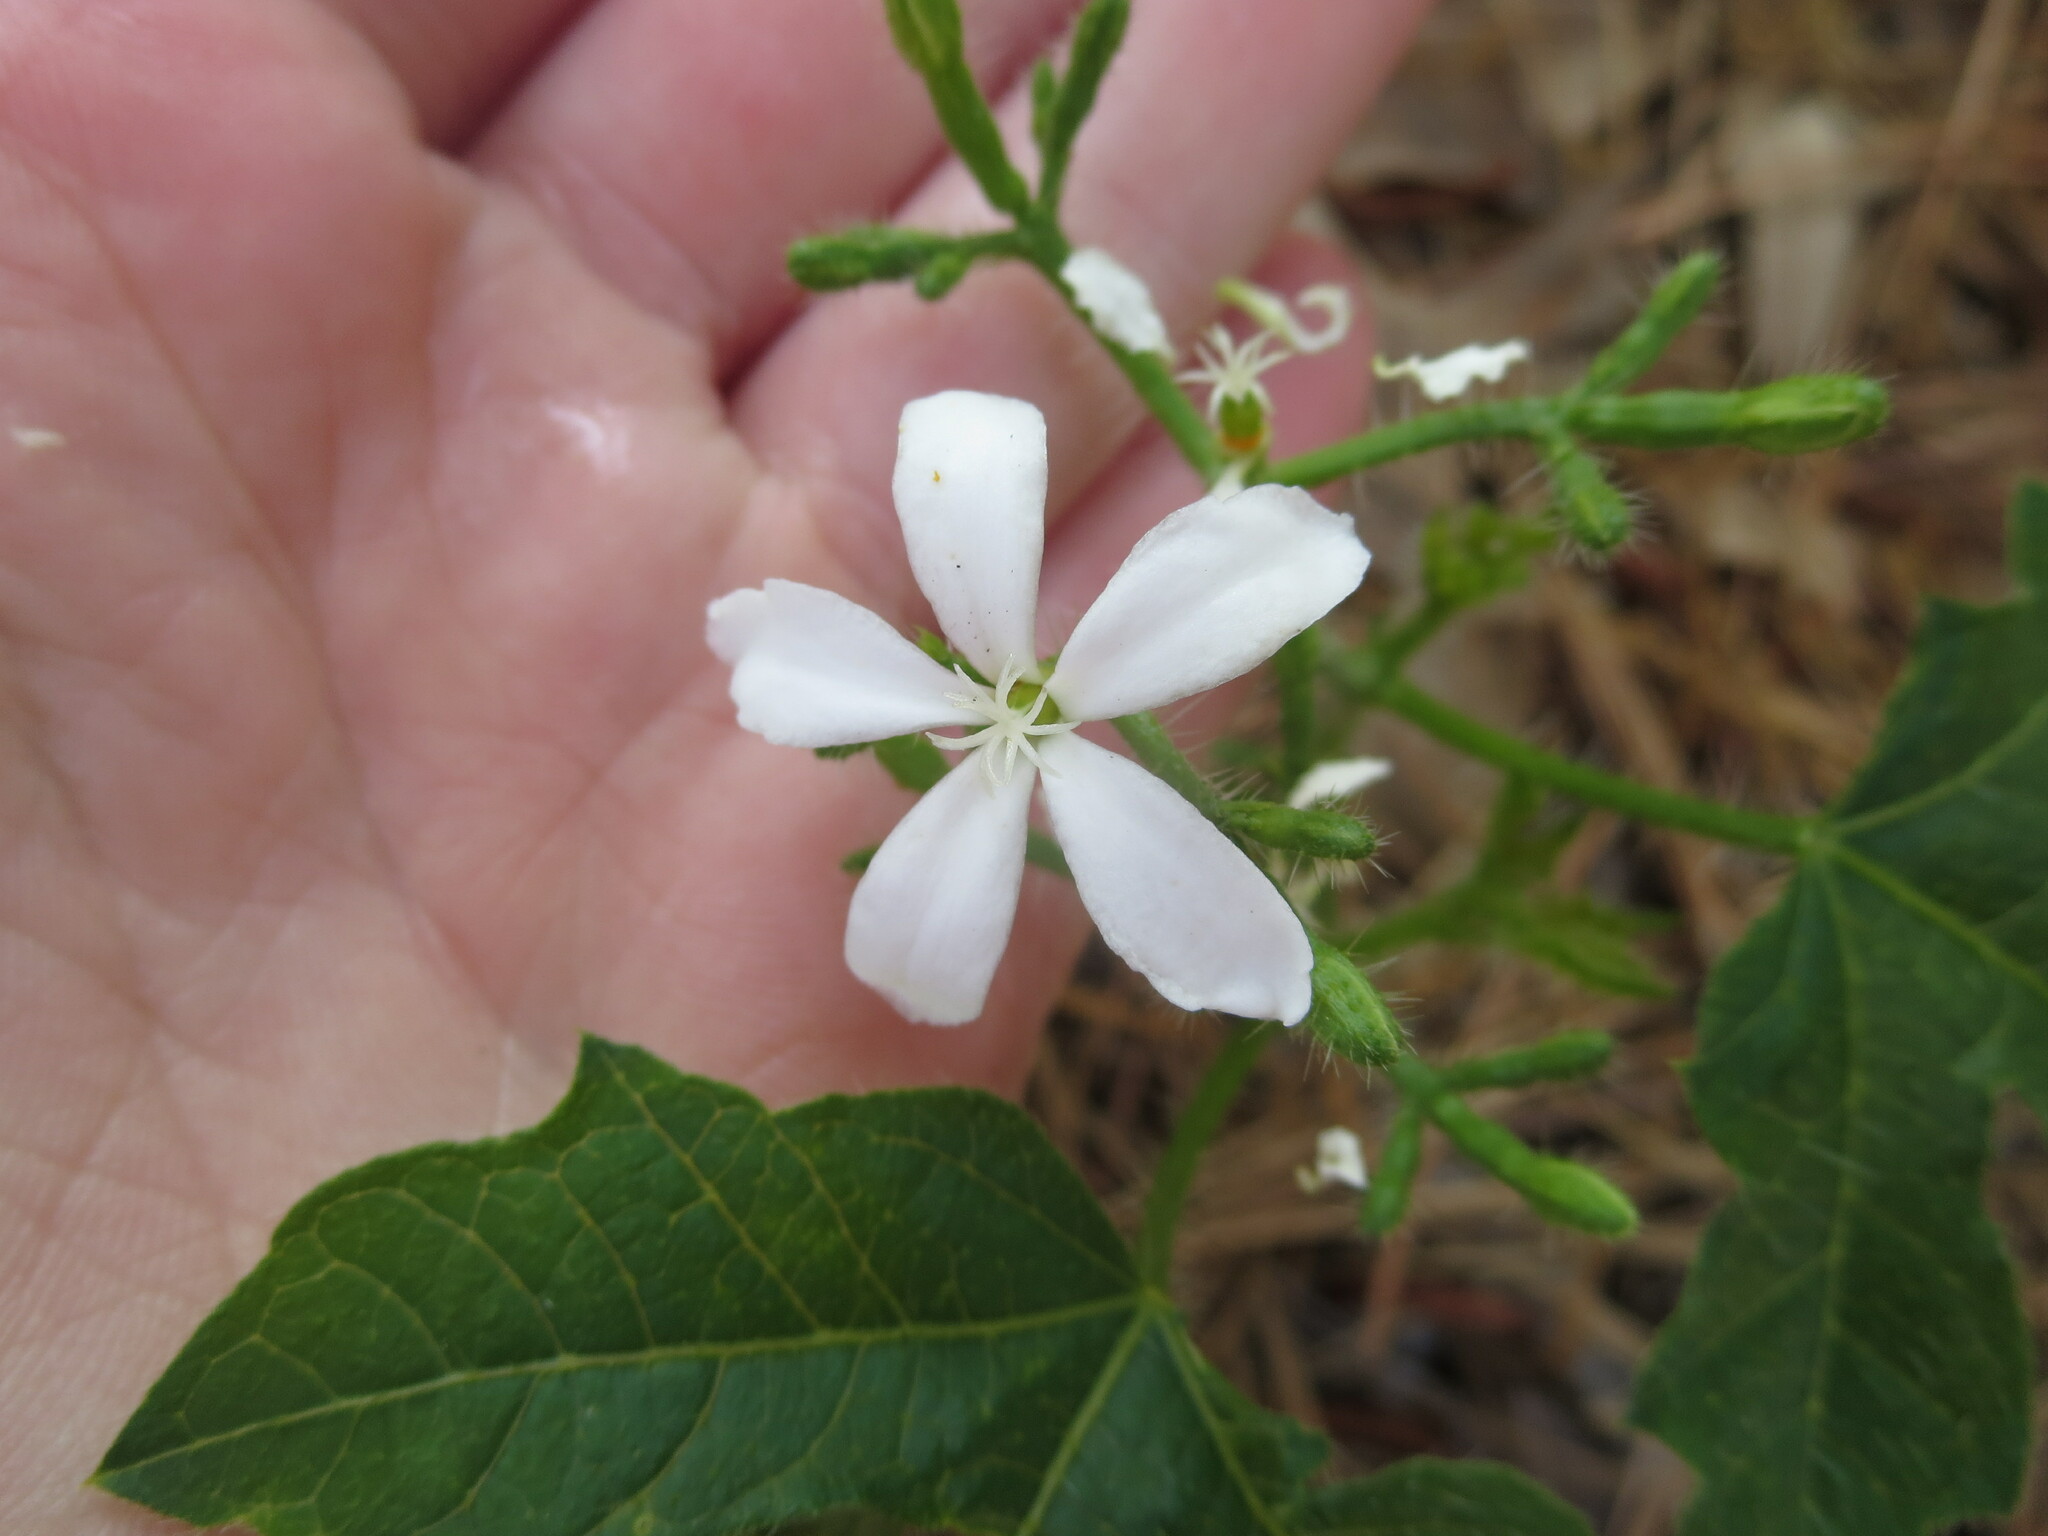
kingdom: Plantae
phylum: Tracheophyta
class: Magnoliopsida
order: Malpighiales
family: Euphorbiaceae
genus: Cnidoscolus
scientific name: Cnidoscolus stimulosus
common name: Bull-nettle
